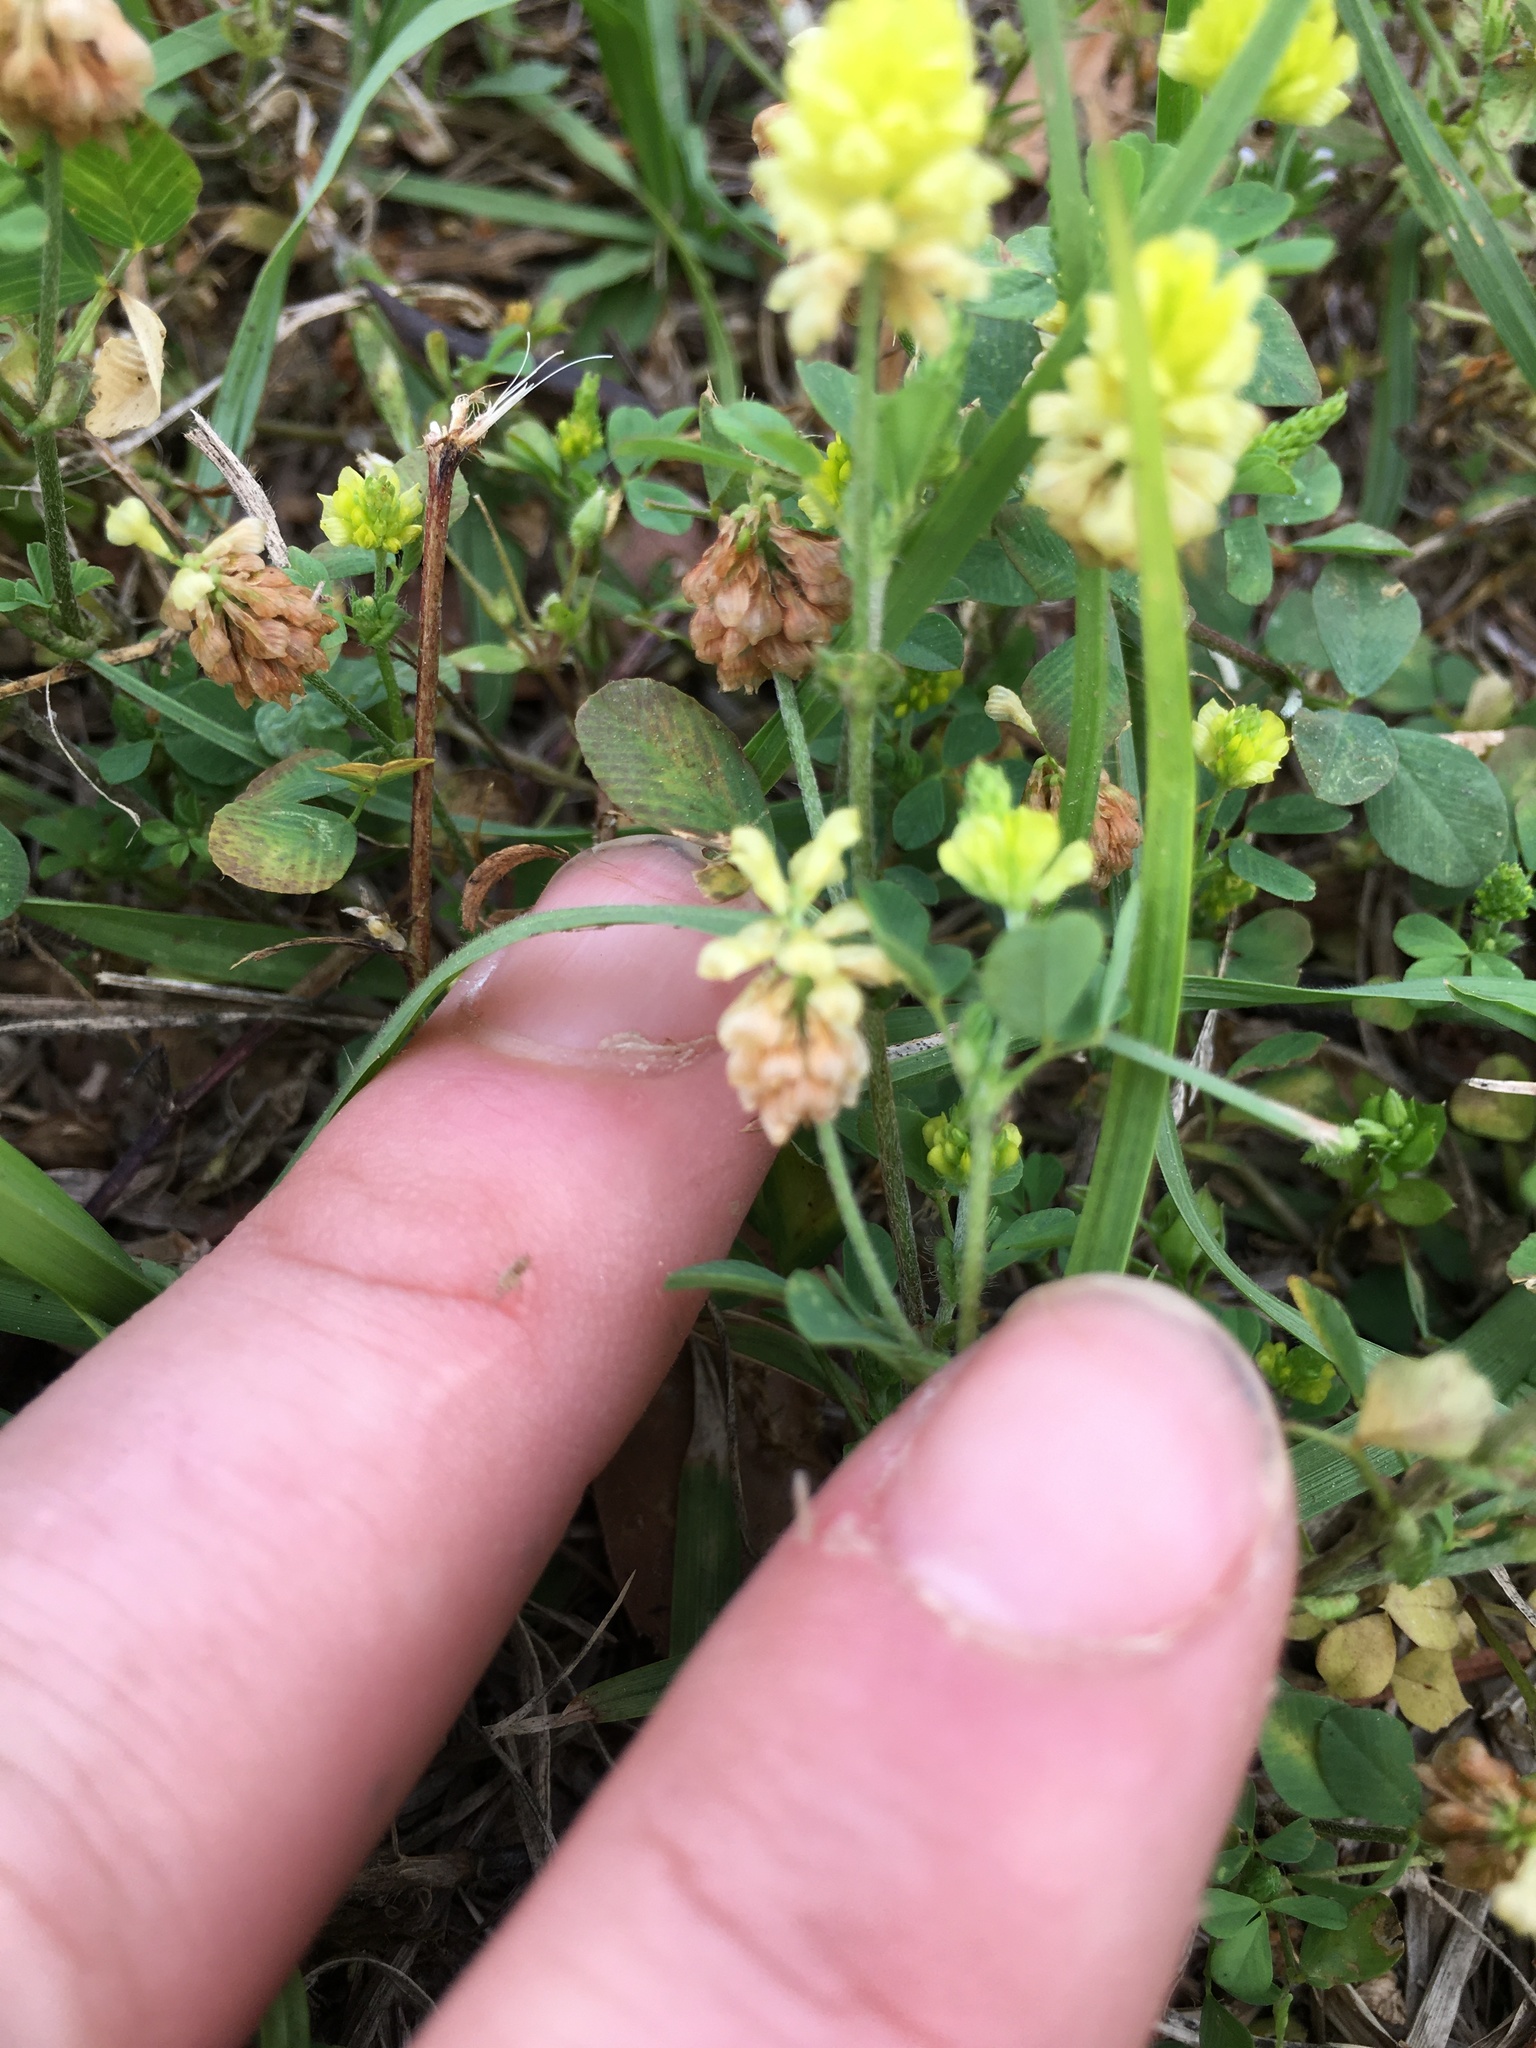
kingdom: Plantae
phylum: Tracheophyta
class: Magnoliopsida
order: Fabales
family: Fabaceae
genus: Trifolium
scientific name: Trifolium campestre
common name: Field clover
